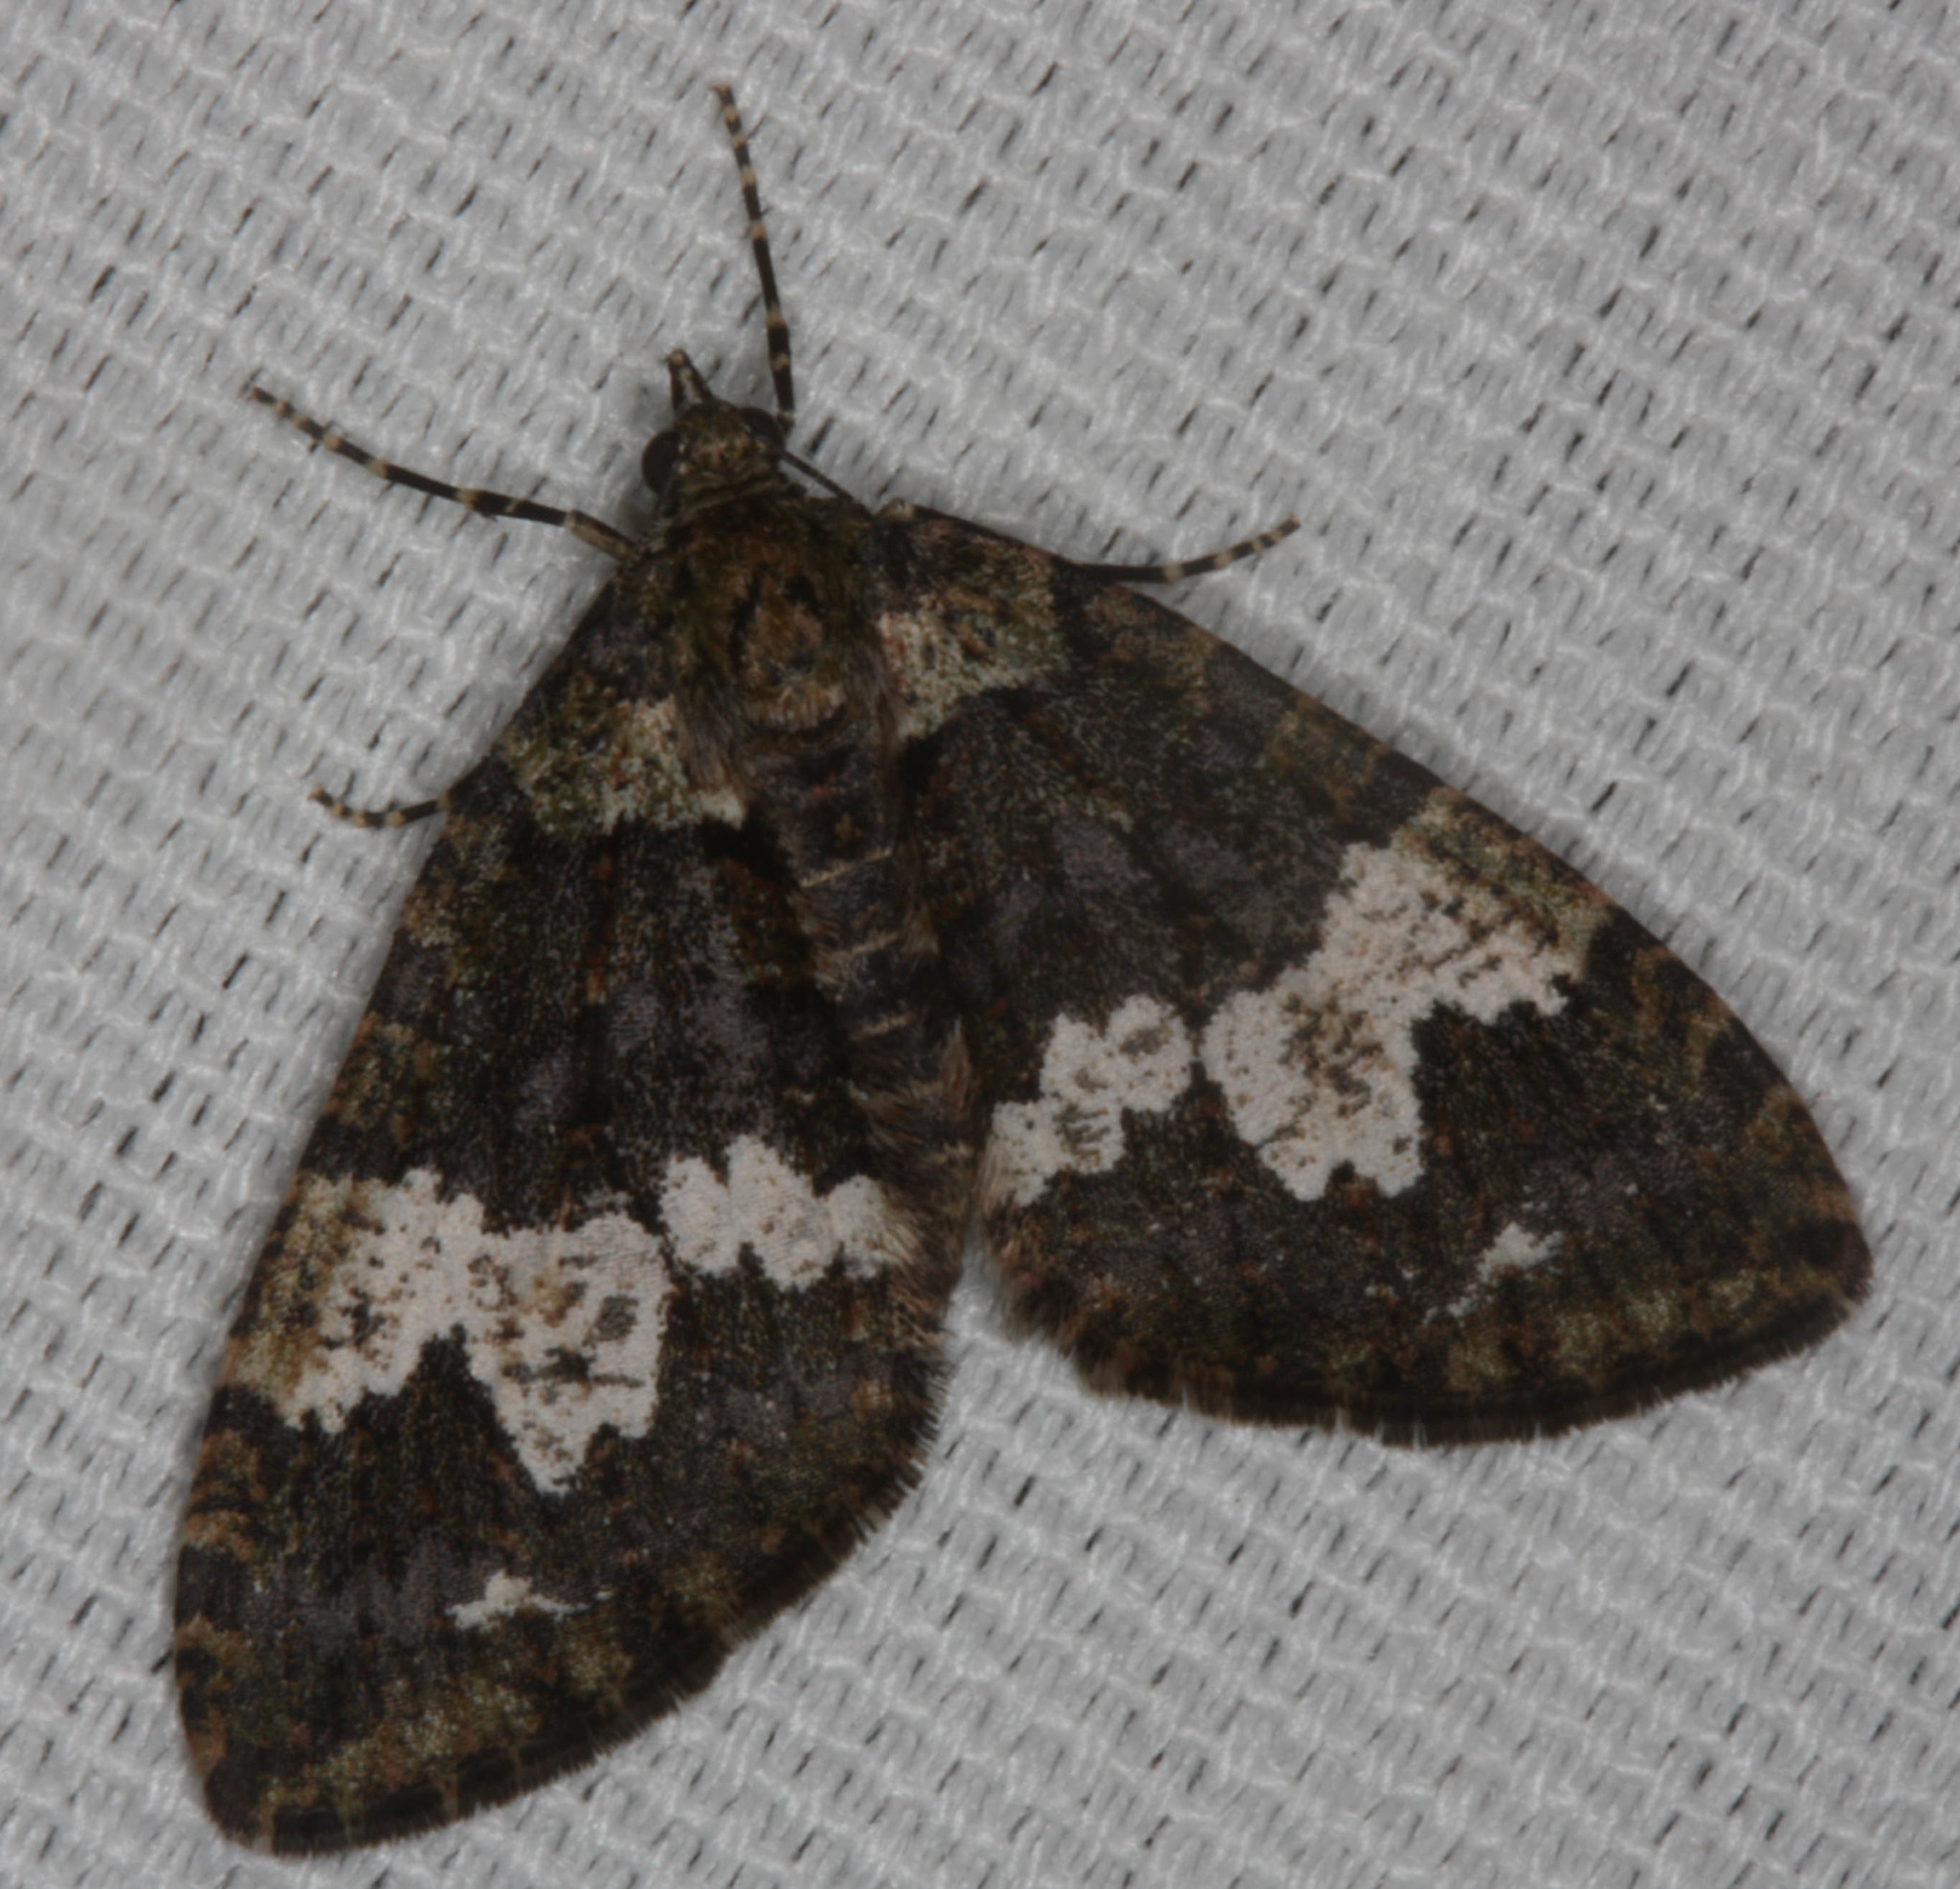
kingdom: Animalia
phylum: Arthropoda
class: Insecta
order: Lepidoptera
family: Geometridae
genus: Hydriomena
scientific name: Hydriomena albifasciata
